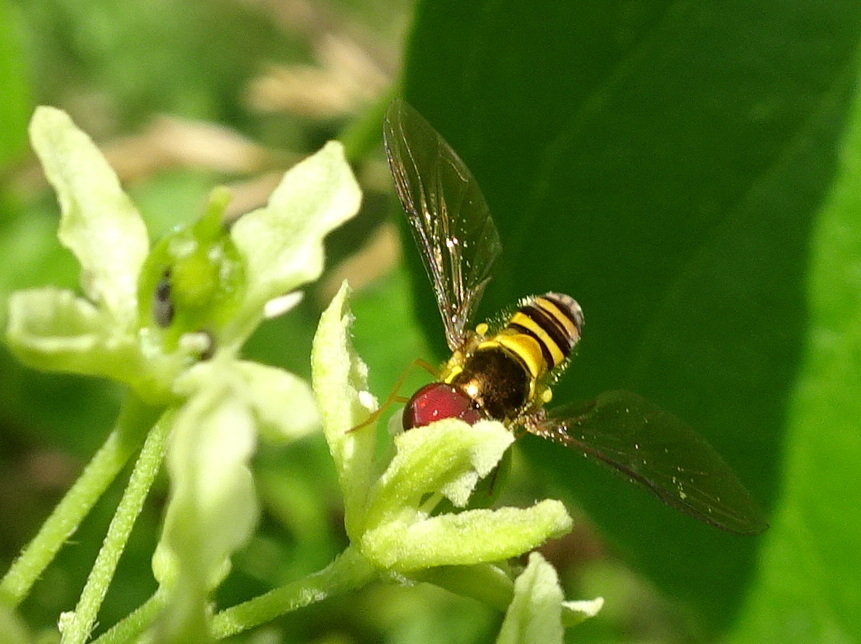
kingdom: Animalia
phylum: Arthropoda
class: Insecta
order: Diptera
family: Syrphidae
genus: Allograpta
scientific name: Allograpta obliqua
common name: Common oblique syrphid
